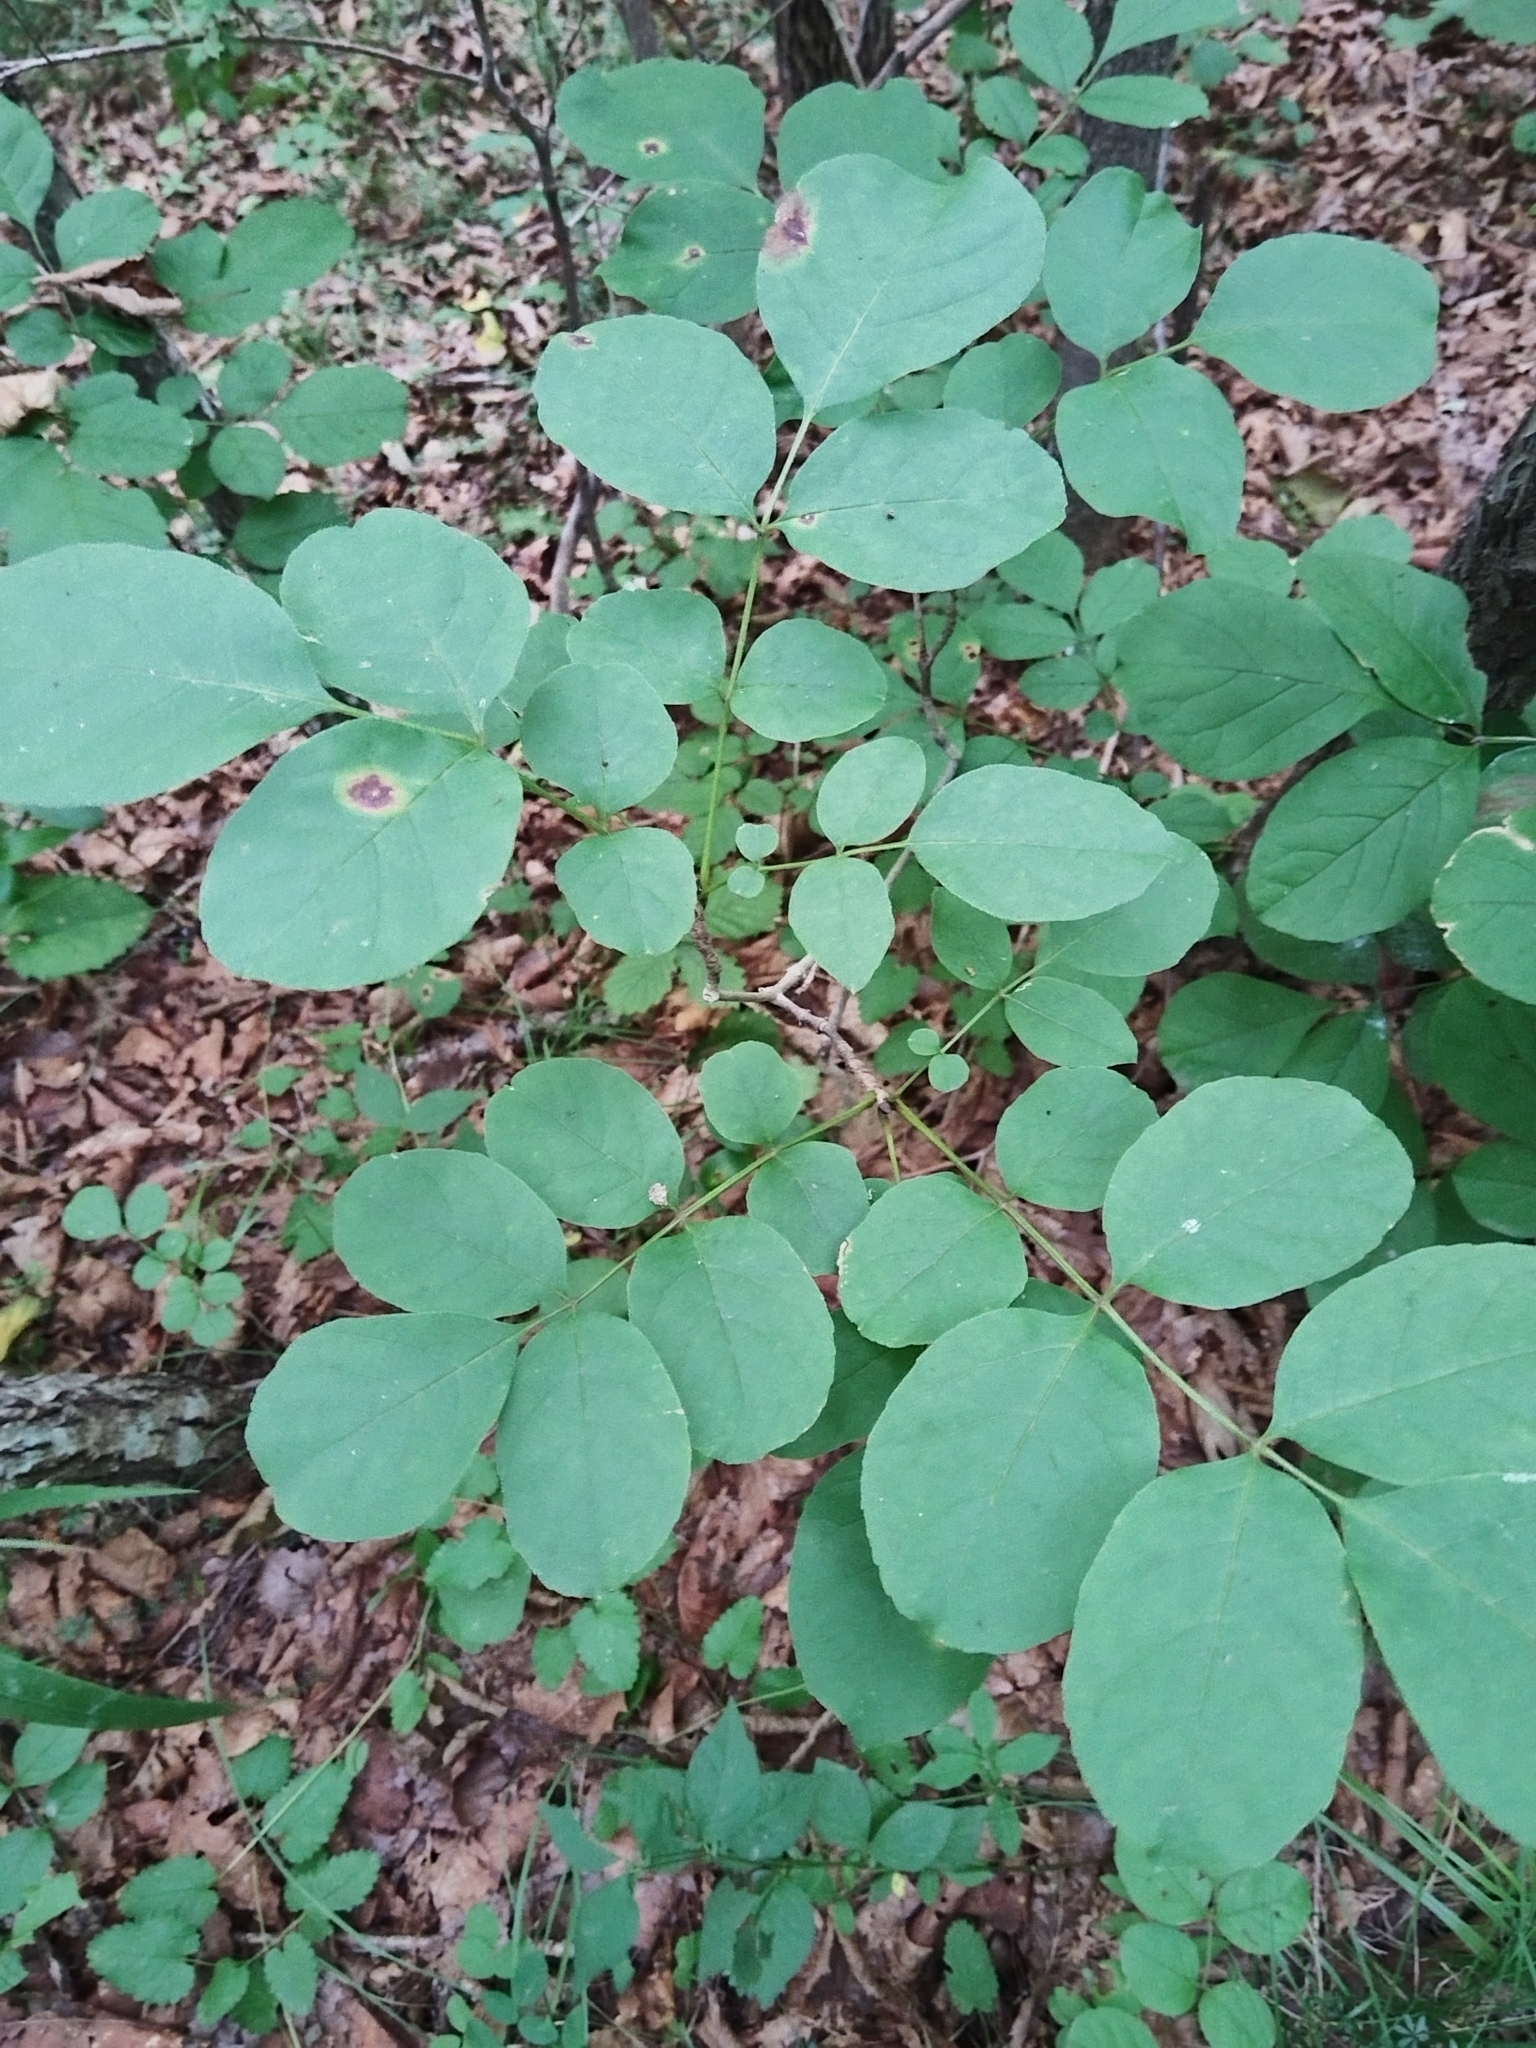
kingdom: Plantae
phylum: Tracheophyta
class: Magnoliopsida
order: Lamiales
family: Oleaceae
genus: Fraxinus
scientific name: Fraxinus chinensis
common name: Chinese ash
